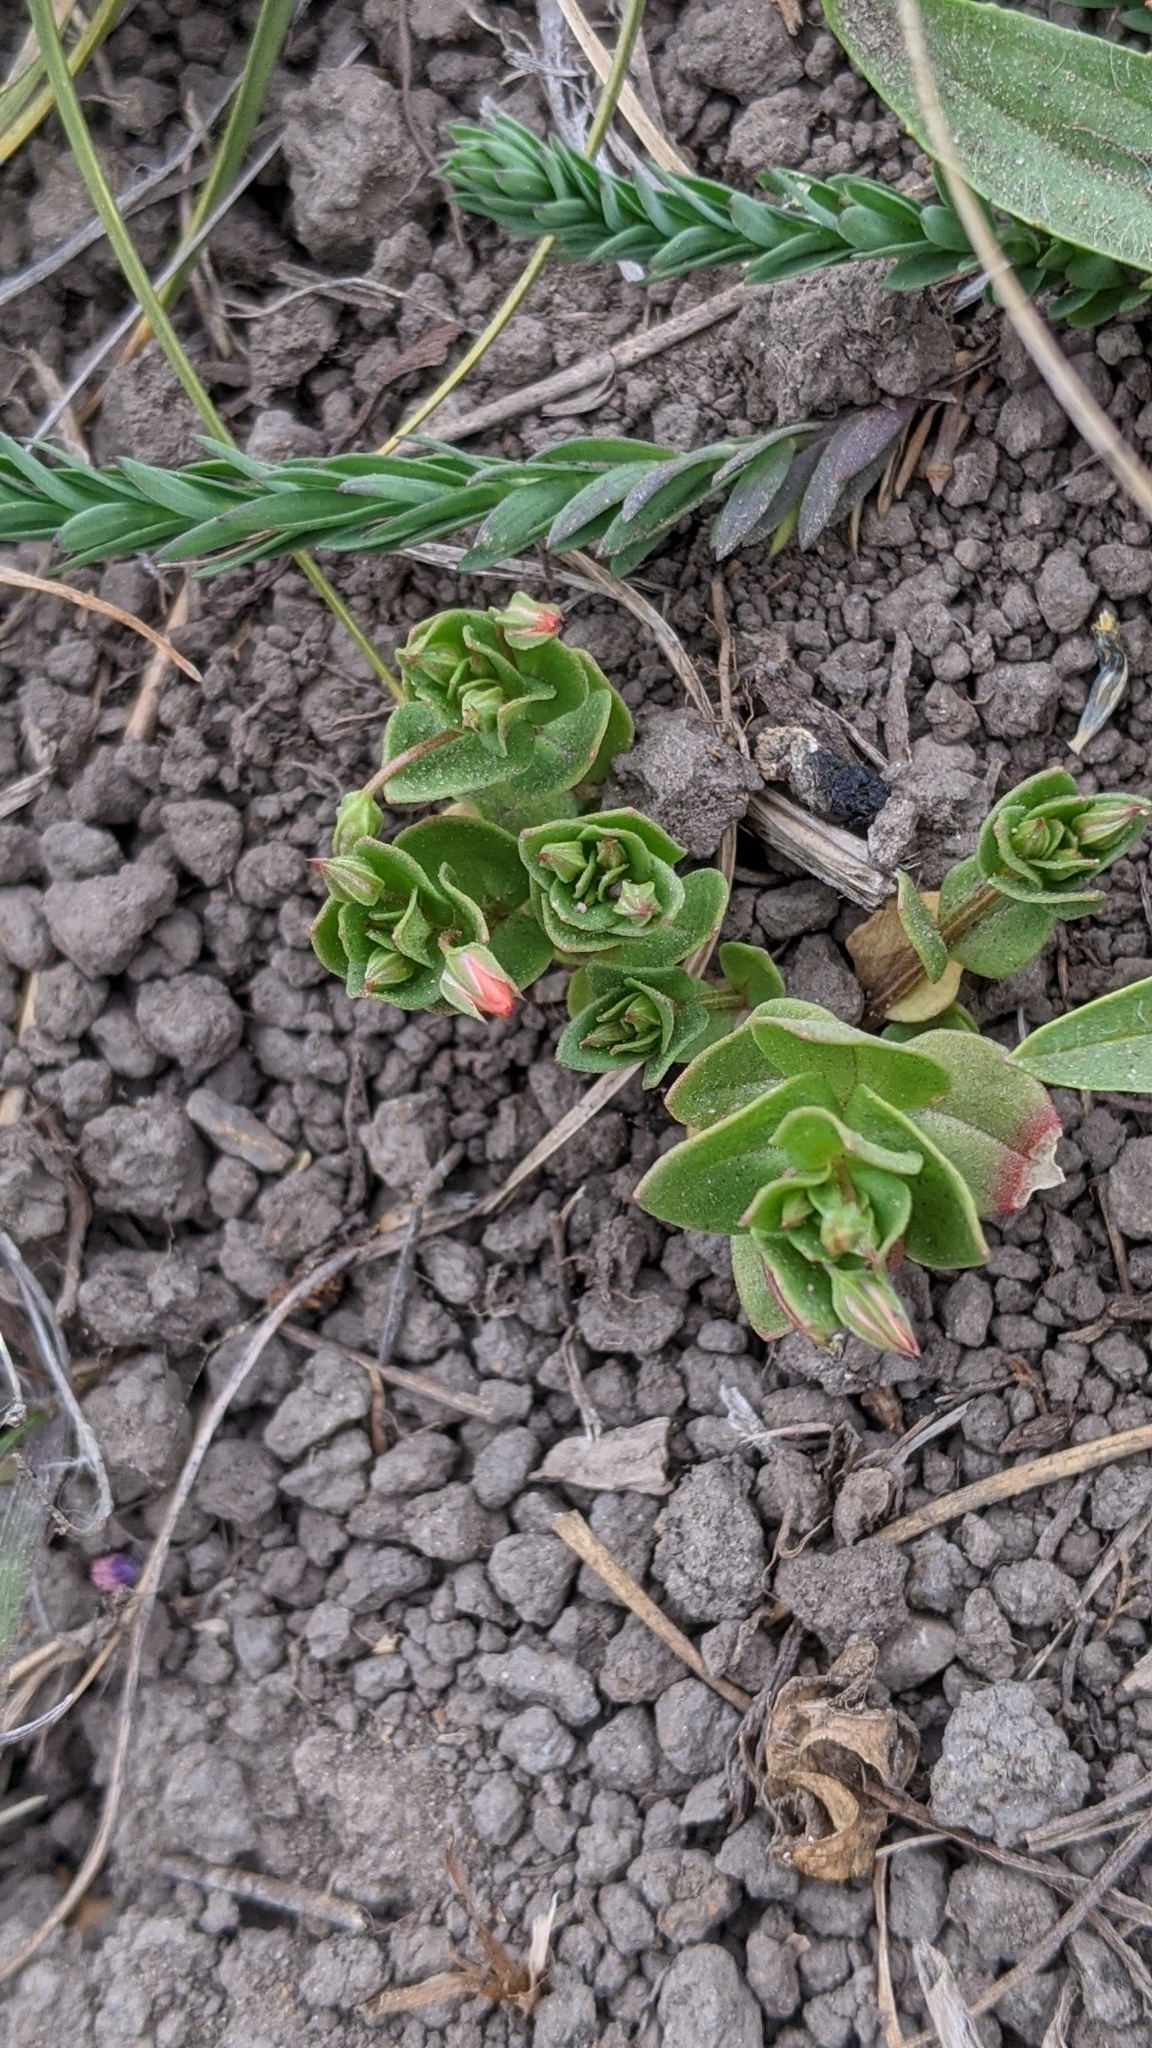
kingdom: Plantae
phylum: Tracheophyta
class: Magnoliopsida
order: Ericales
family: Primulaceae
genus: Lysimachia
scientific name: Lysimachia arvensis
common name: Scarlet pimpernel
